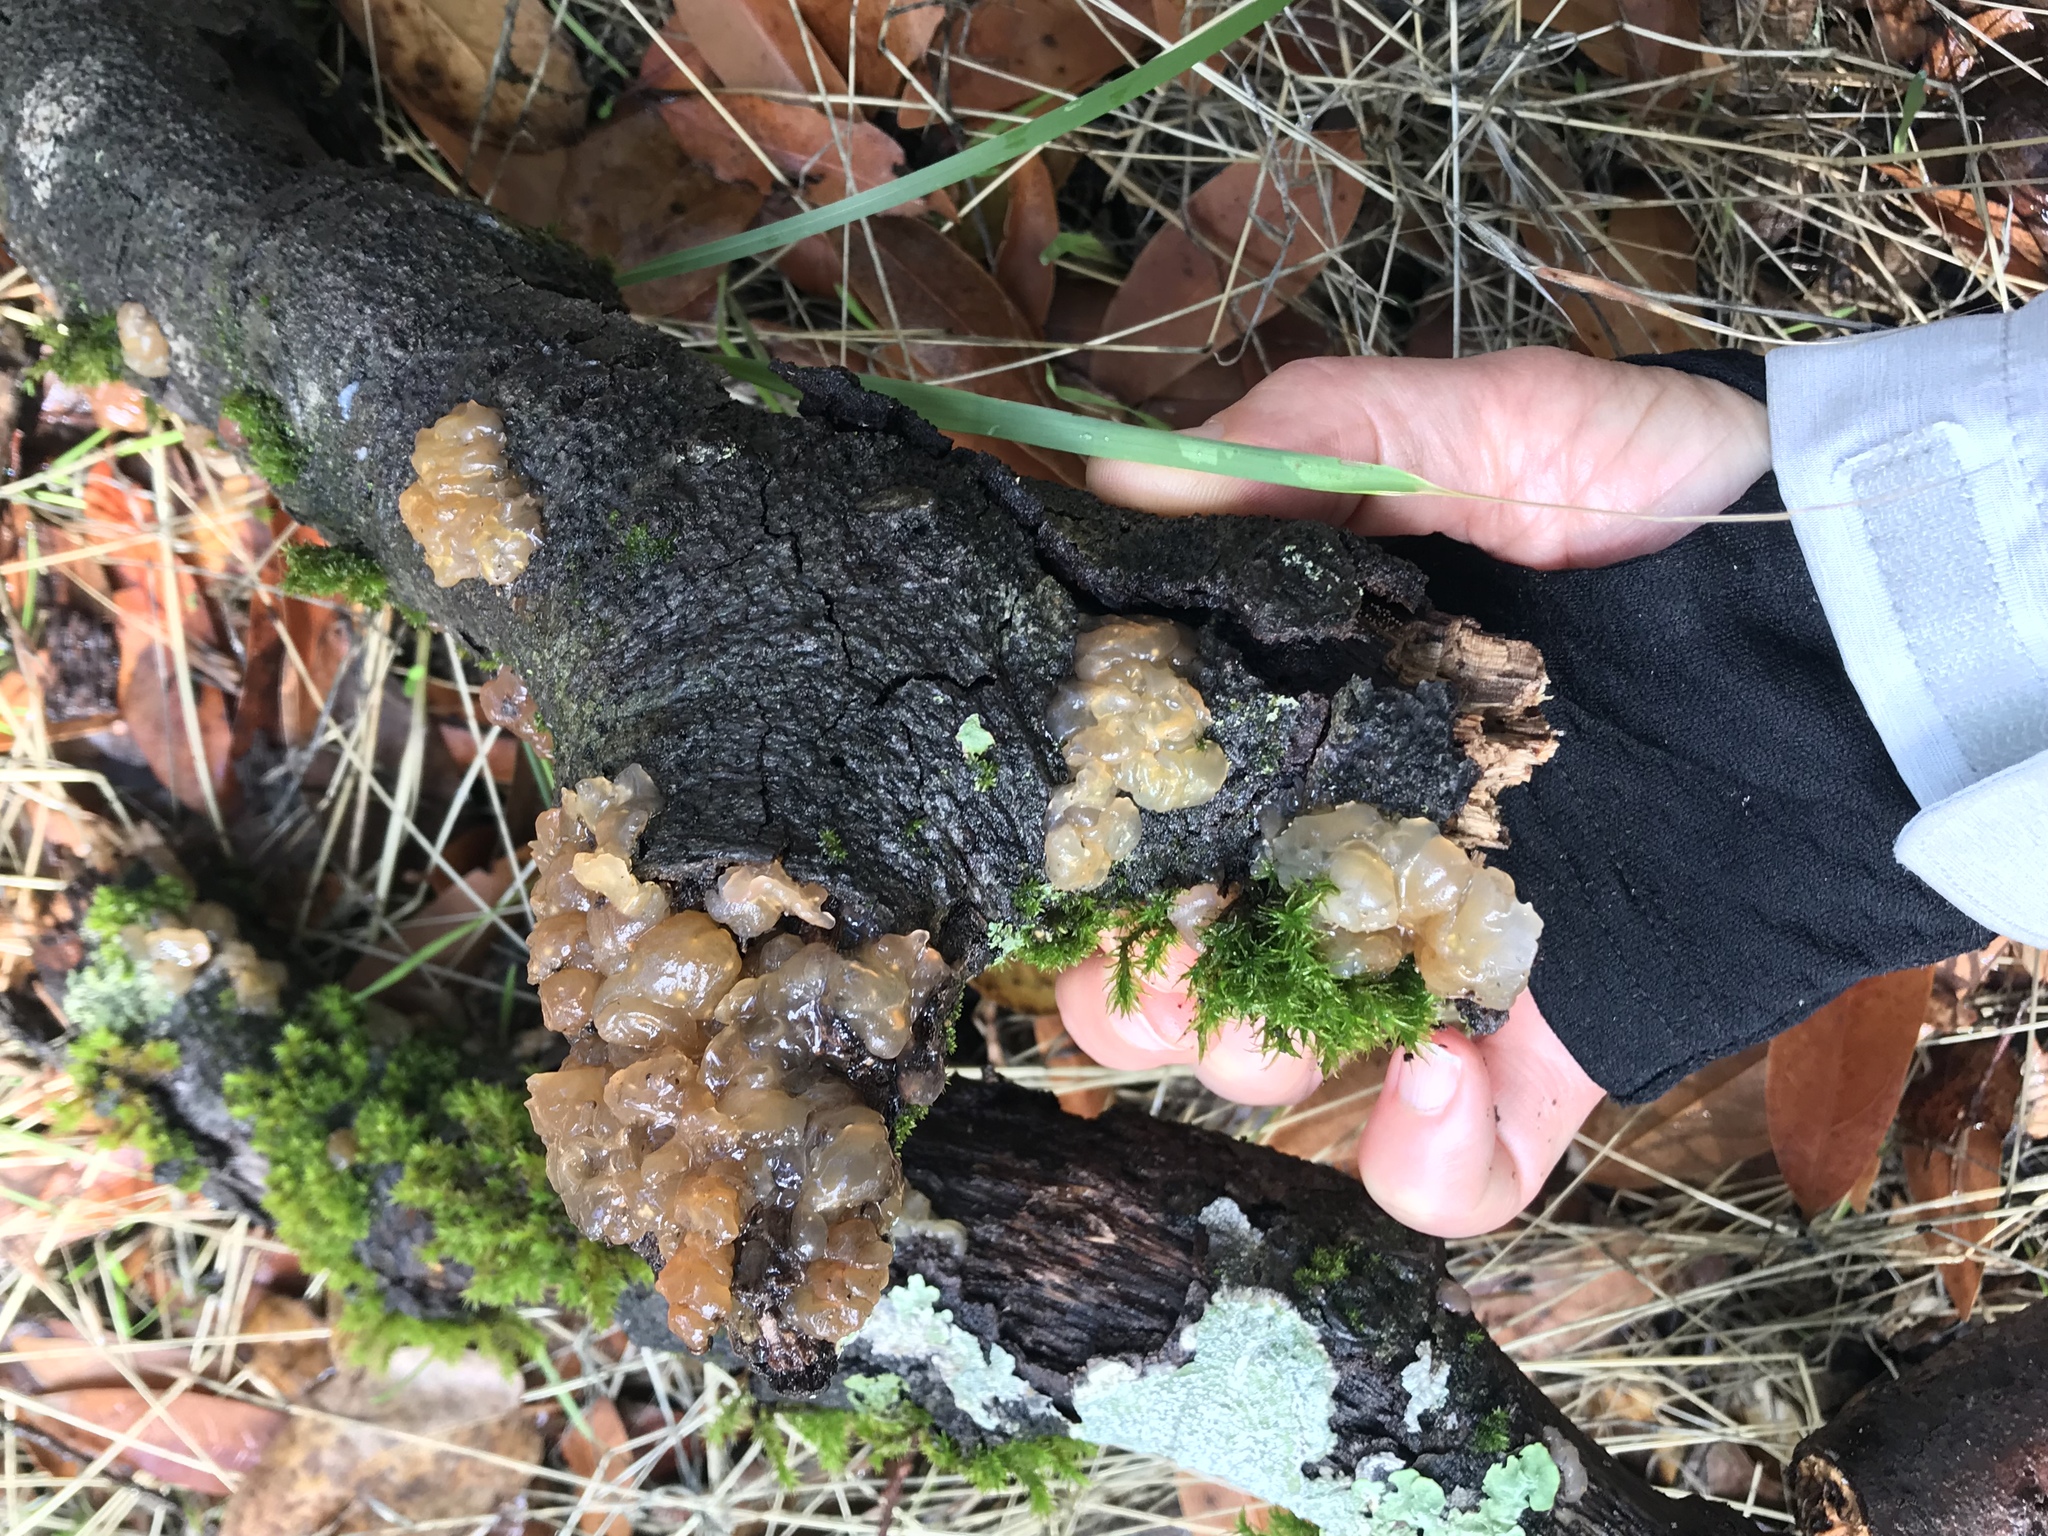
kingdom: Fungi
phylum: Basidiomycota
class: Agaricomycetes
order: Auriculariales
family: Hyaloriaceae
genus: Myxarium
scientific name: Myxarium nucleatum
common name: Crystal brain fungus
